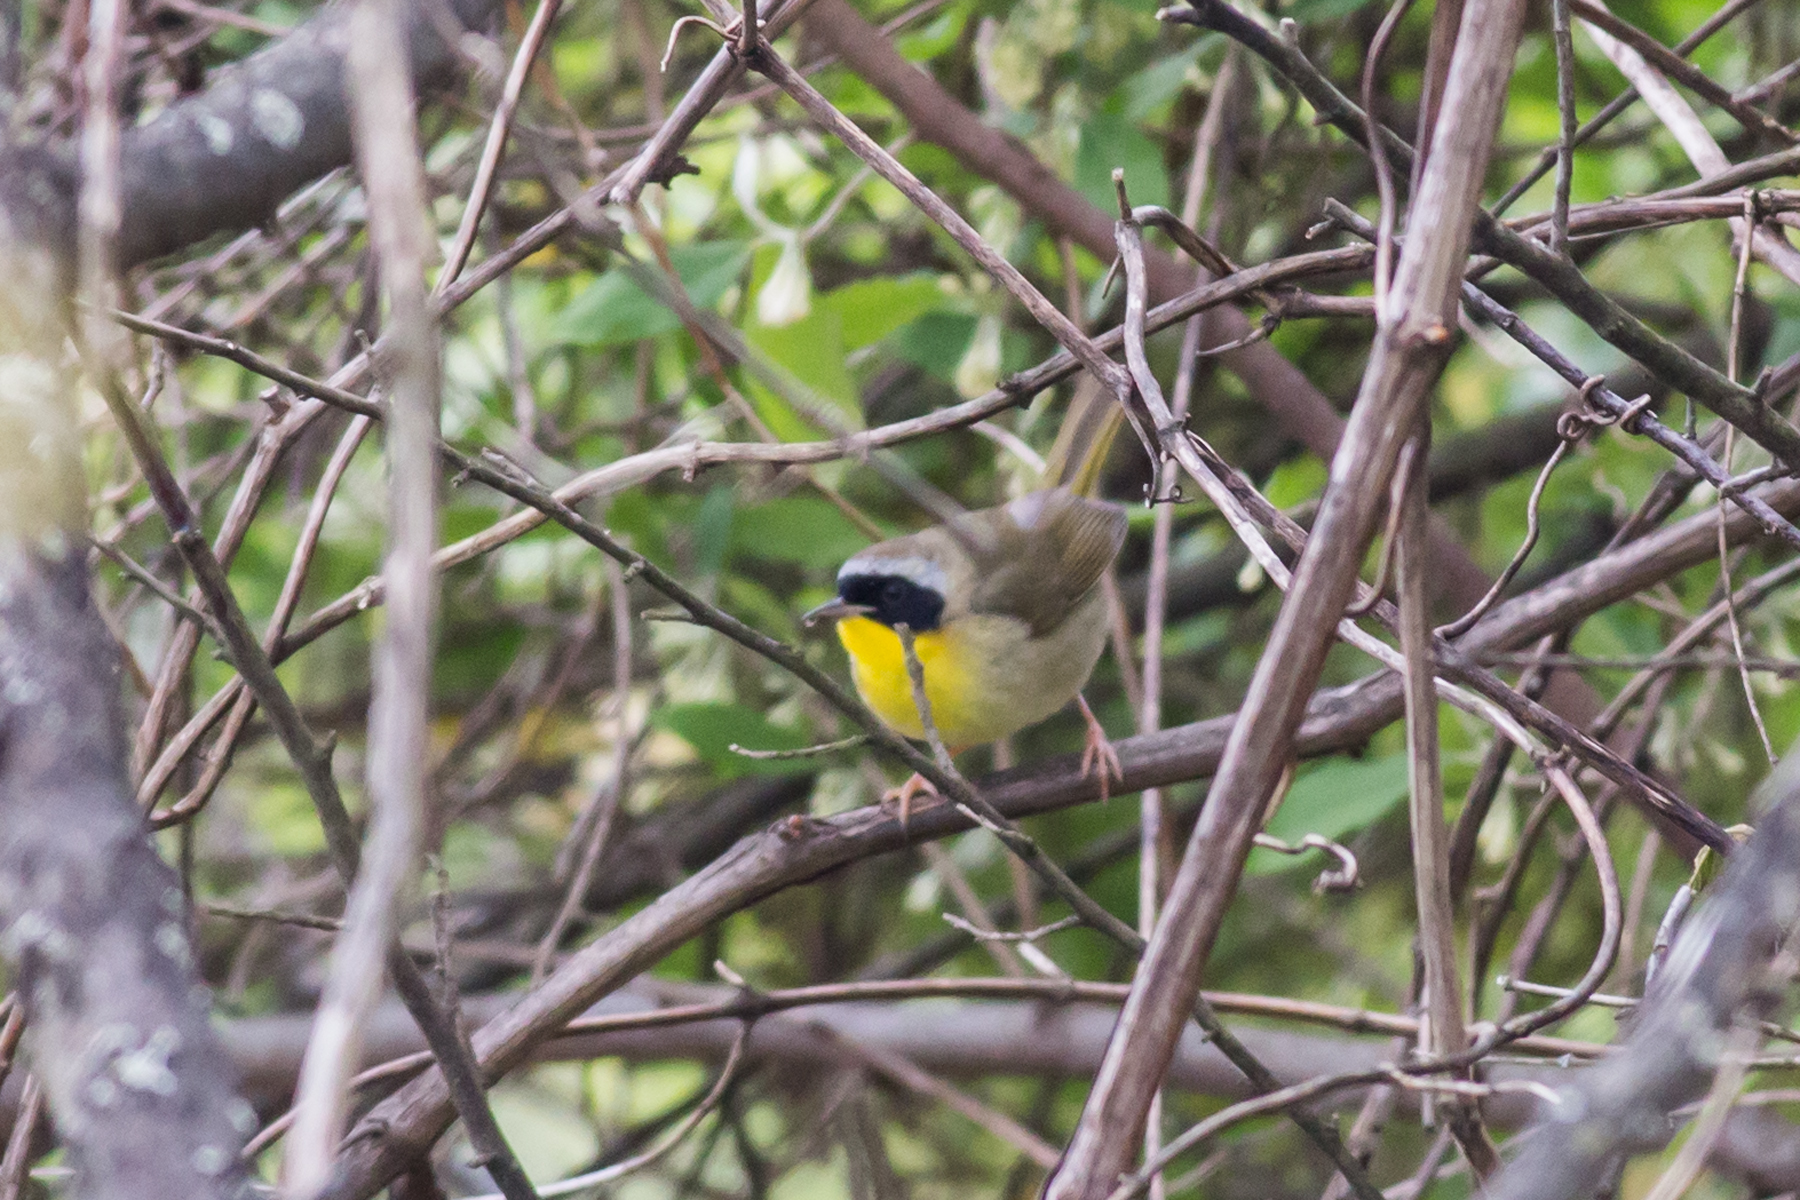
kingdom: Animalia
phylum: Chordata
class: Aves
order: Passeriformes
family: Parulidae
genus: Geothlypis
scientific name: Geothlypis trichas
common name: Common yellowthroat
